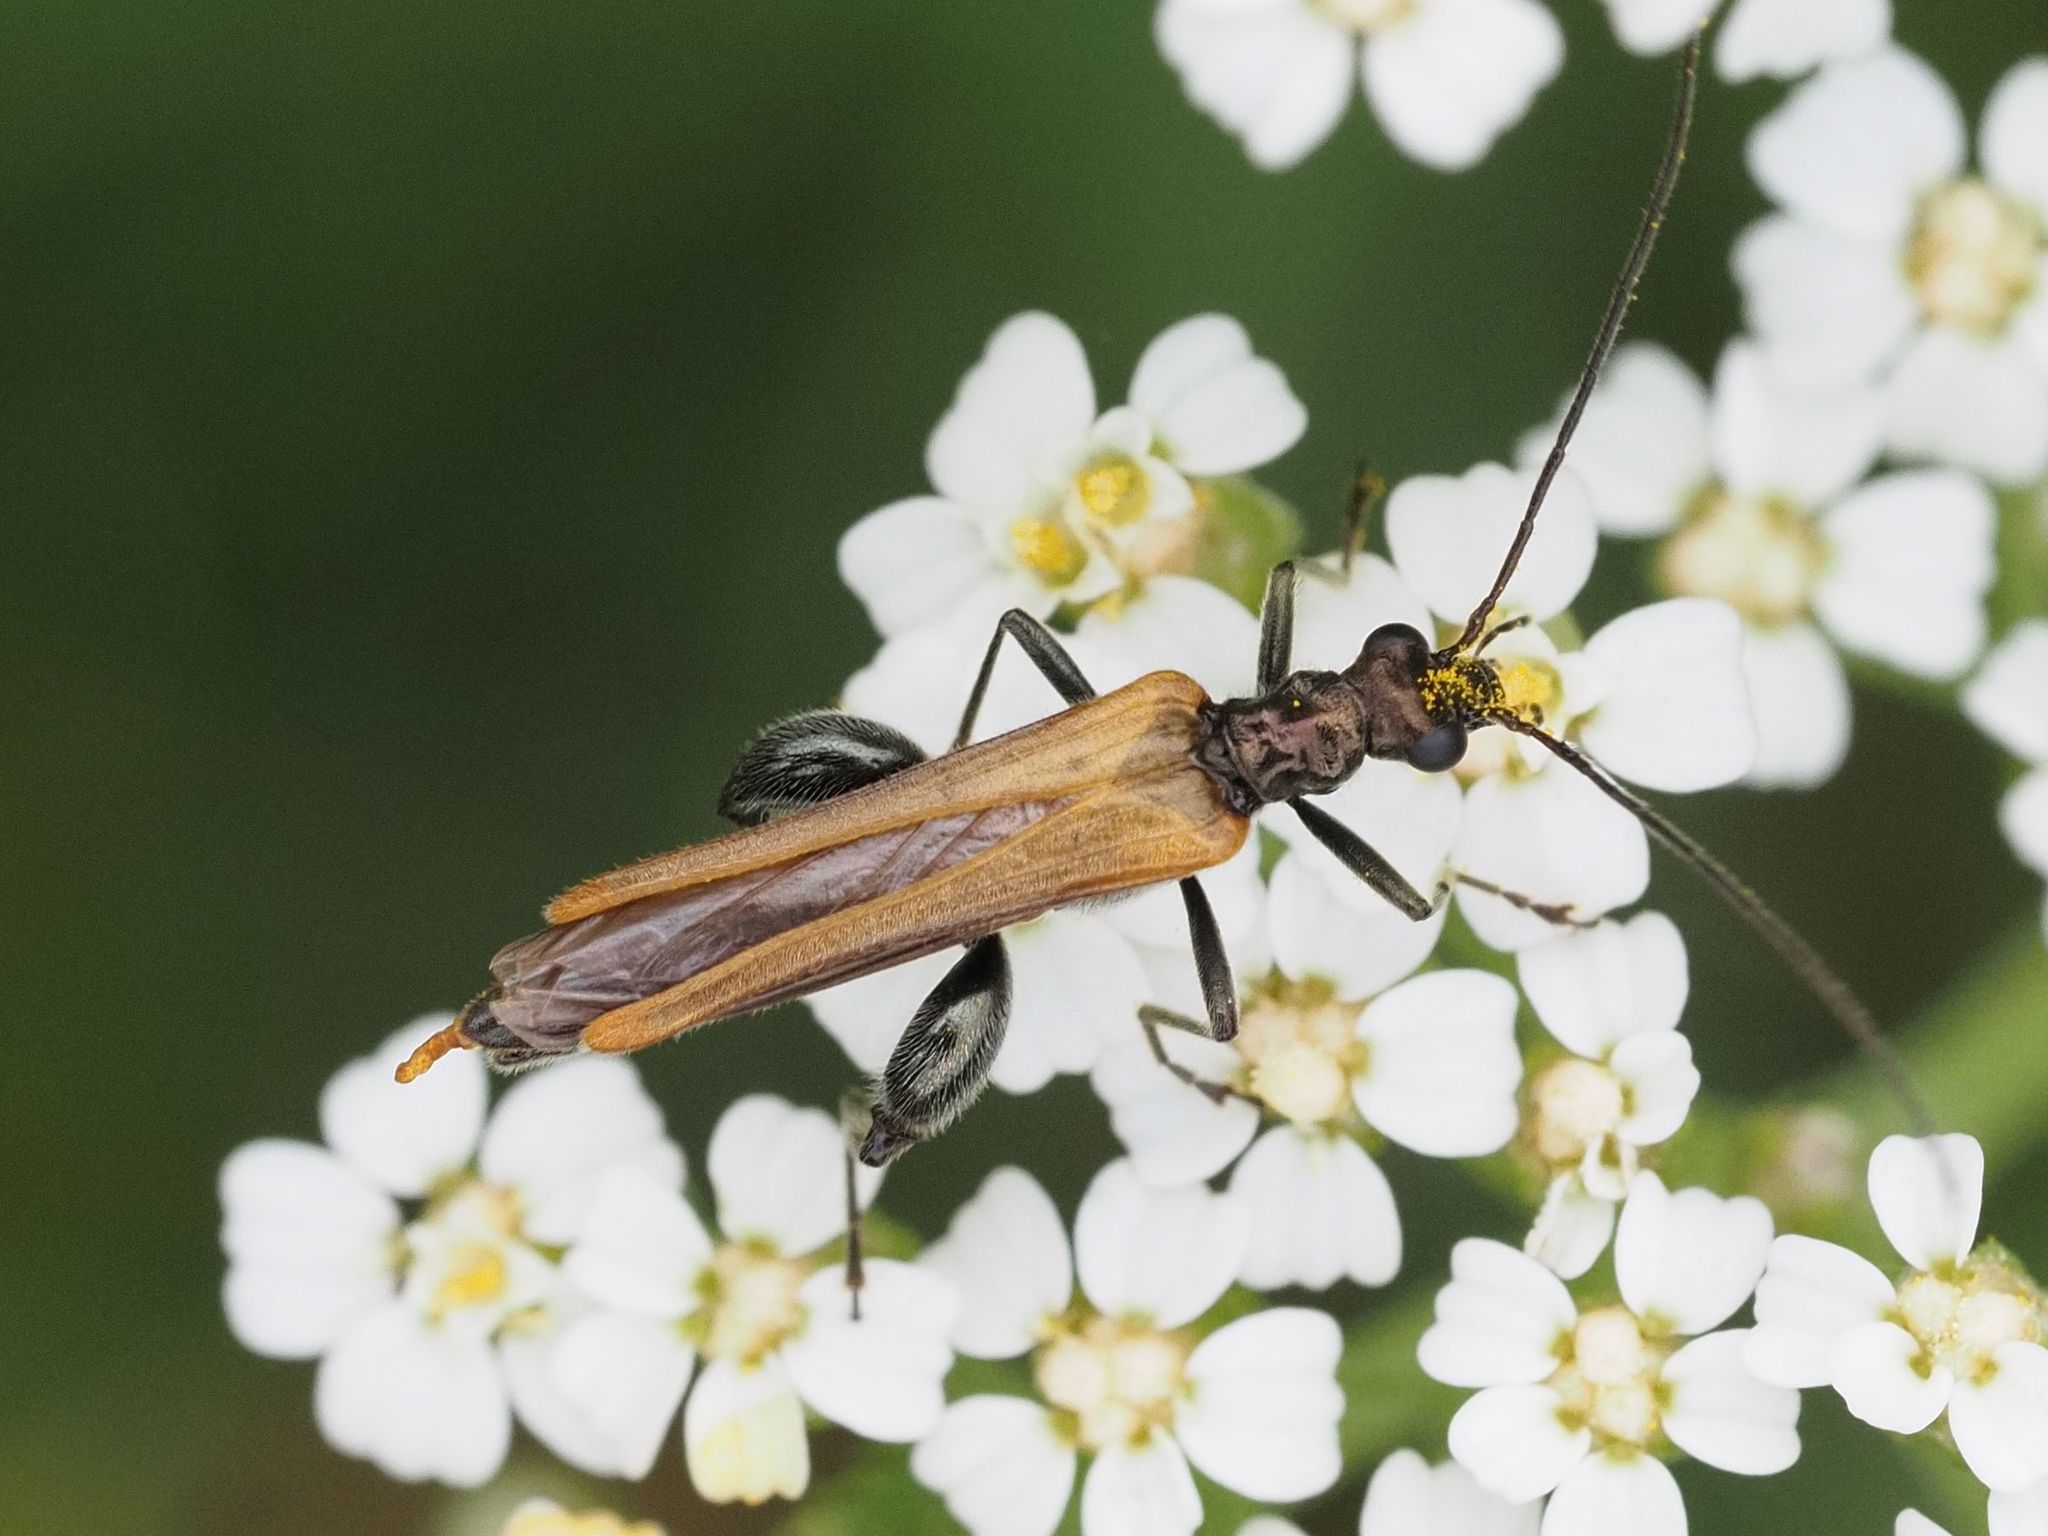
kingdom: Animalia
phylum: Arthropoda
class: Insecta
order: Coleoptera
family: Oedemeridae
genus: Oedemera
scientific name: Oedemera femorata
